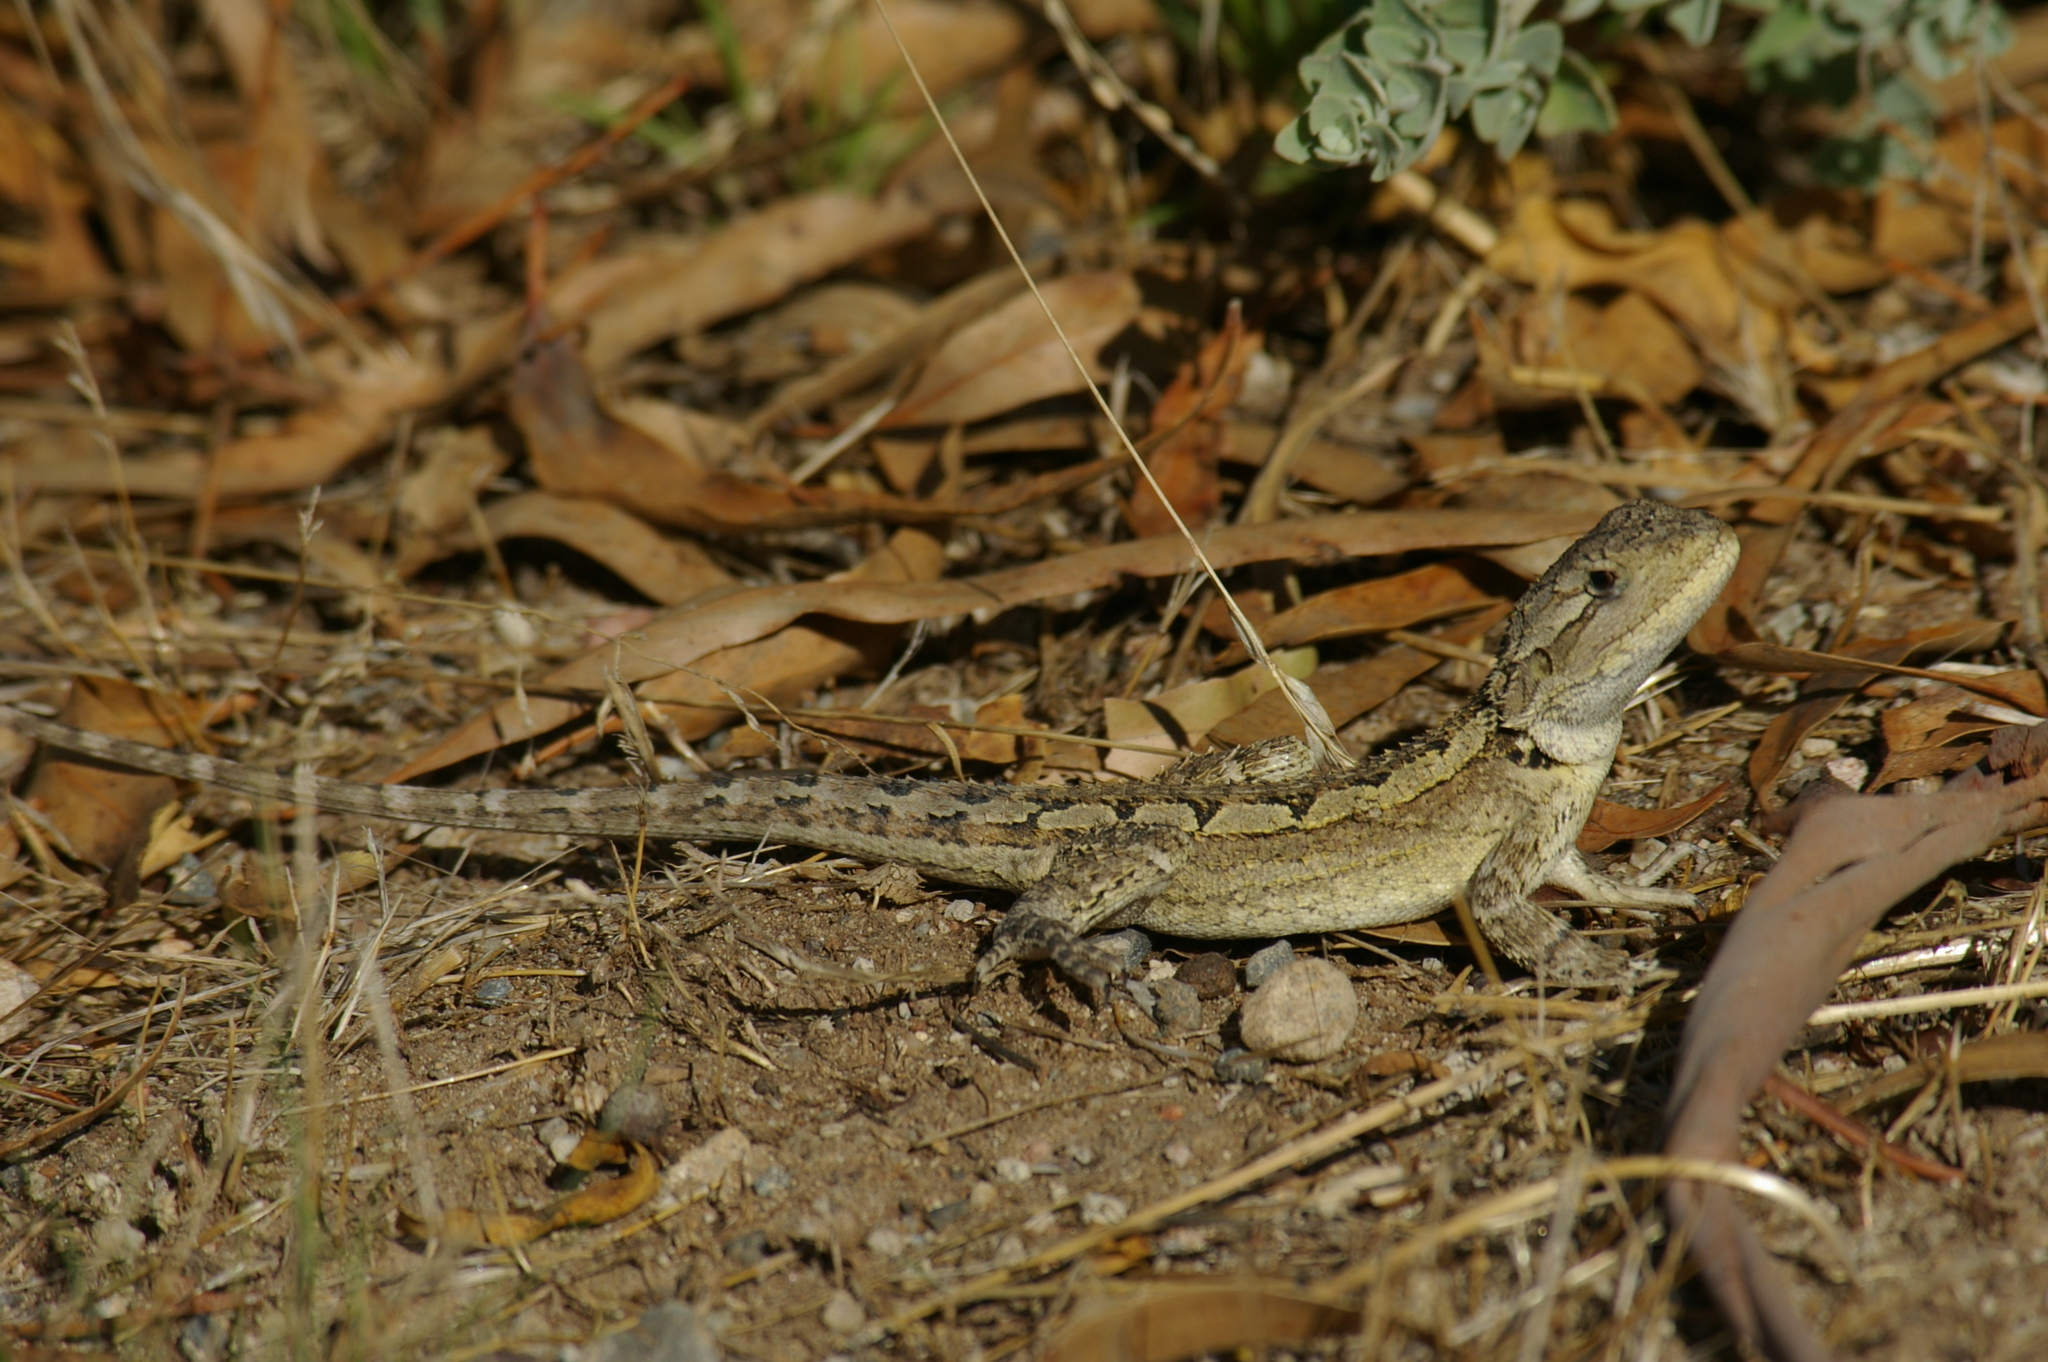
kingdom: Animalia
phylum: Chordata
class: Squamata
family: Agamidae
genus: Amphibolurus
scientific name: Amphibolurus muricatus
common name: Jacky lizard
